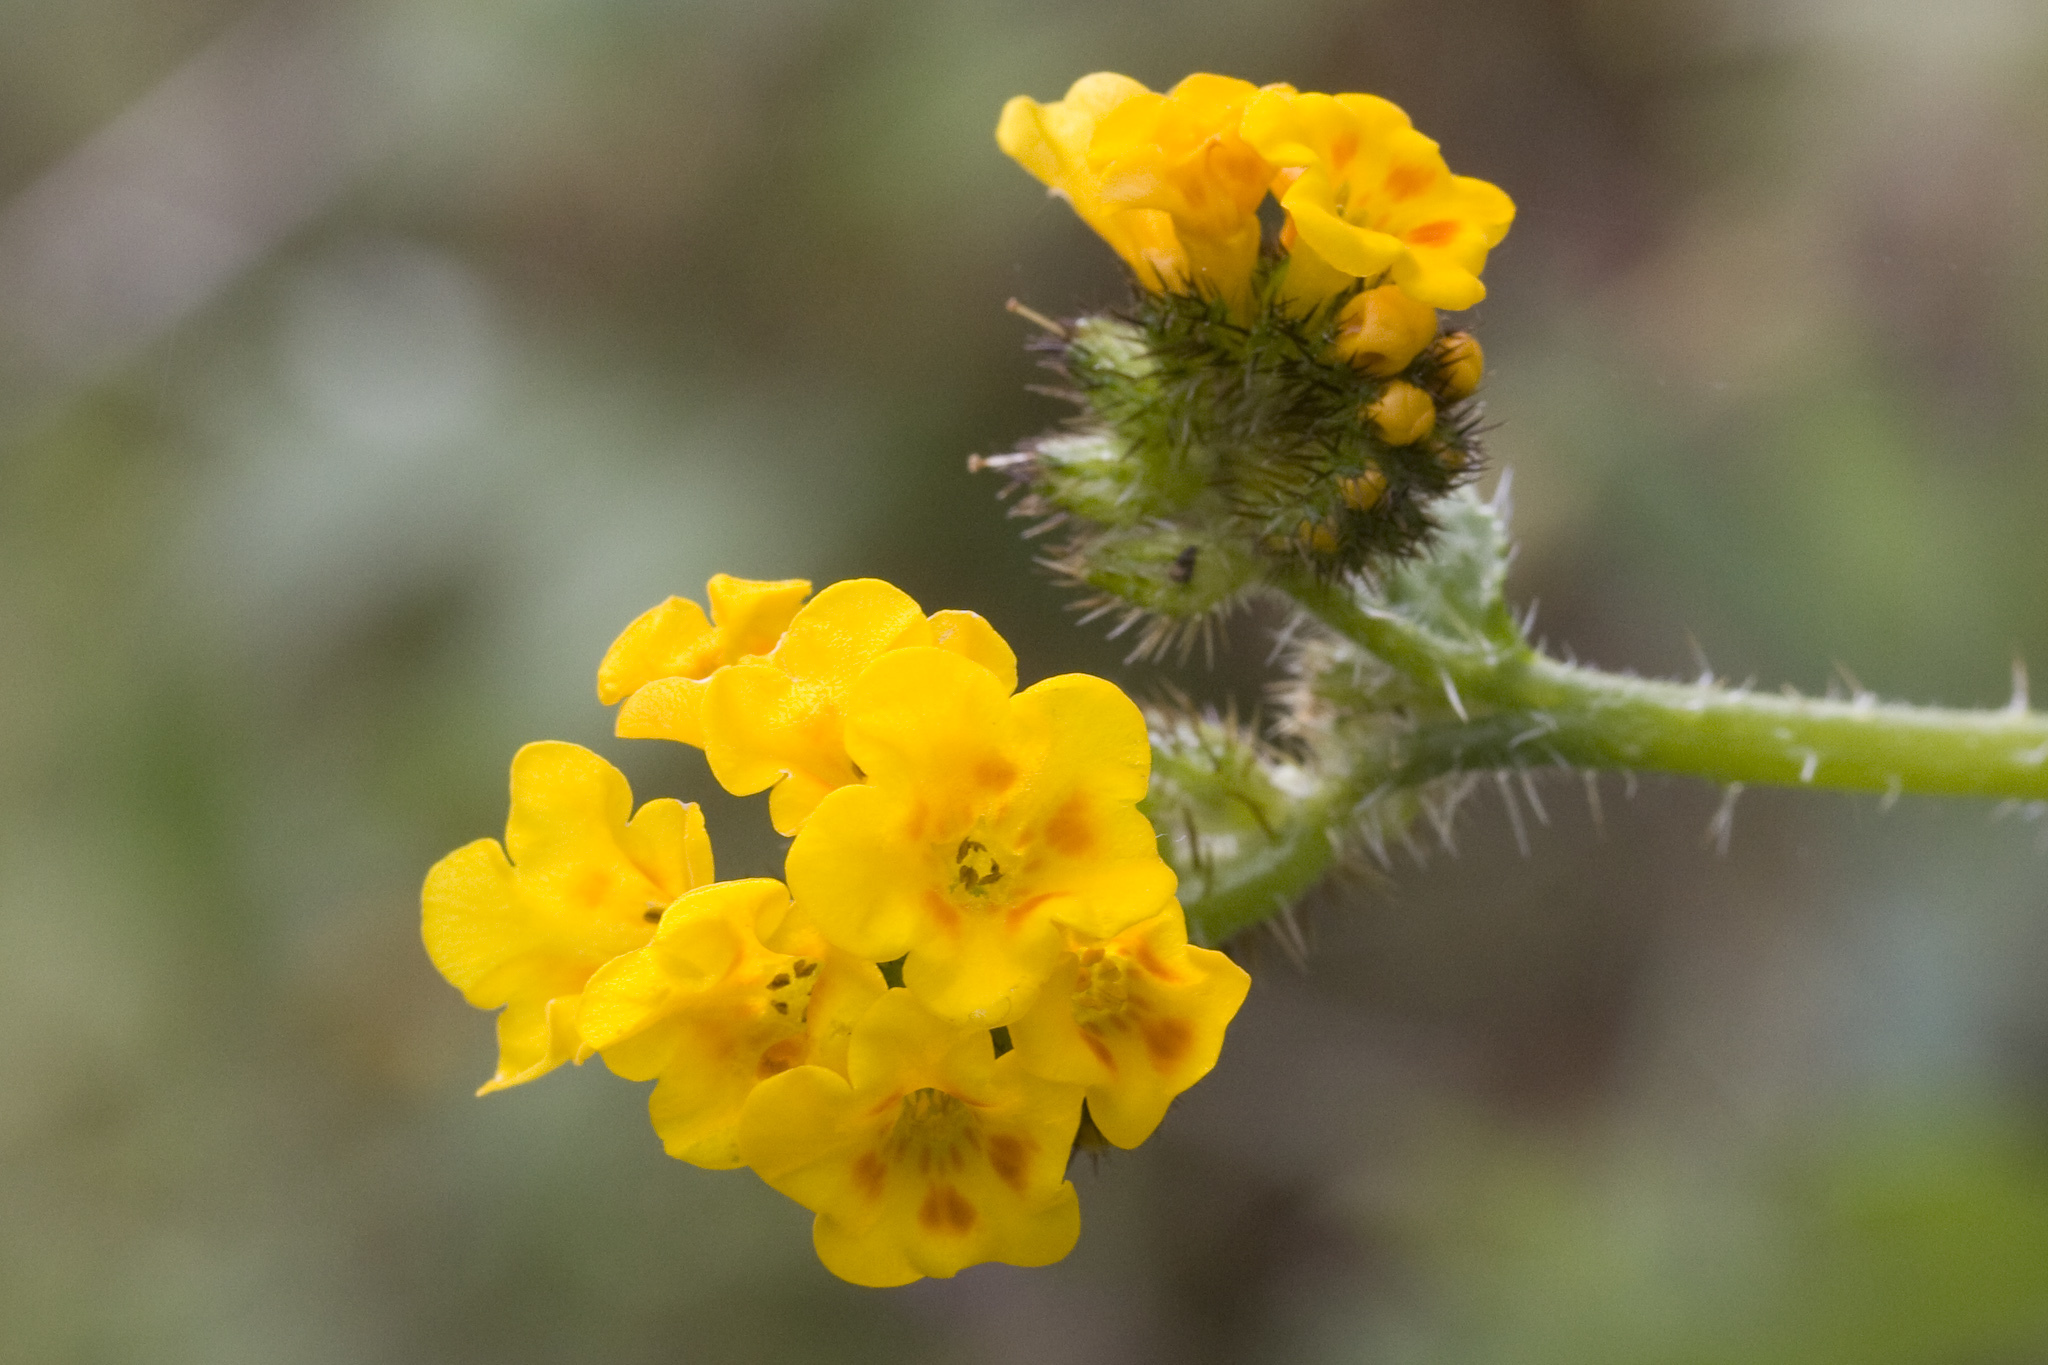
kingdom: Plantae
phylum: Tracheophyta
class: Magnoliopsida
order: Boraginales
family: Boraginaceae
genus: Amsinckia
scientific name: Amsinckia menziesii
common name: Menzies' fiddleneck
